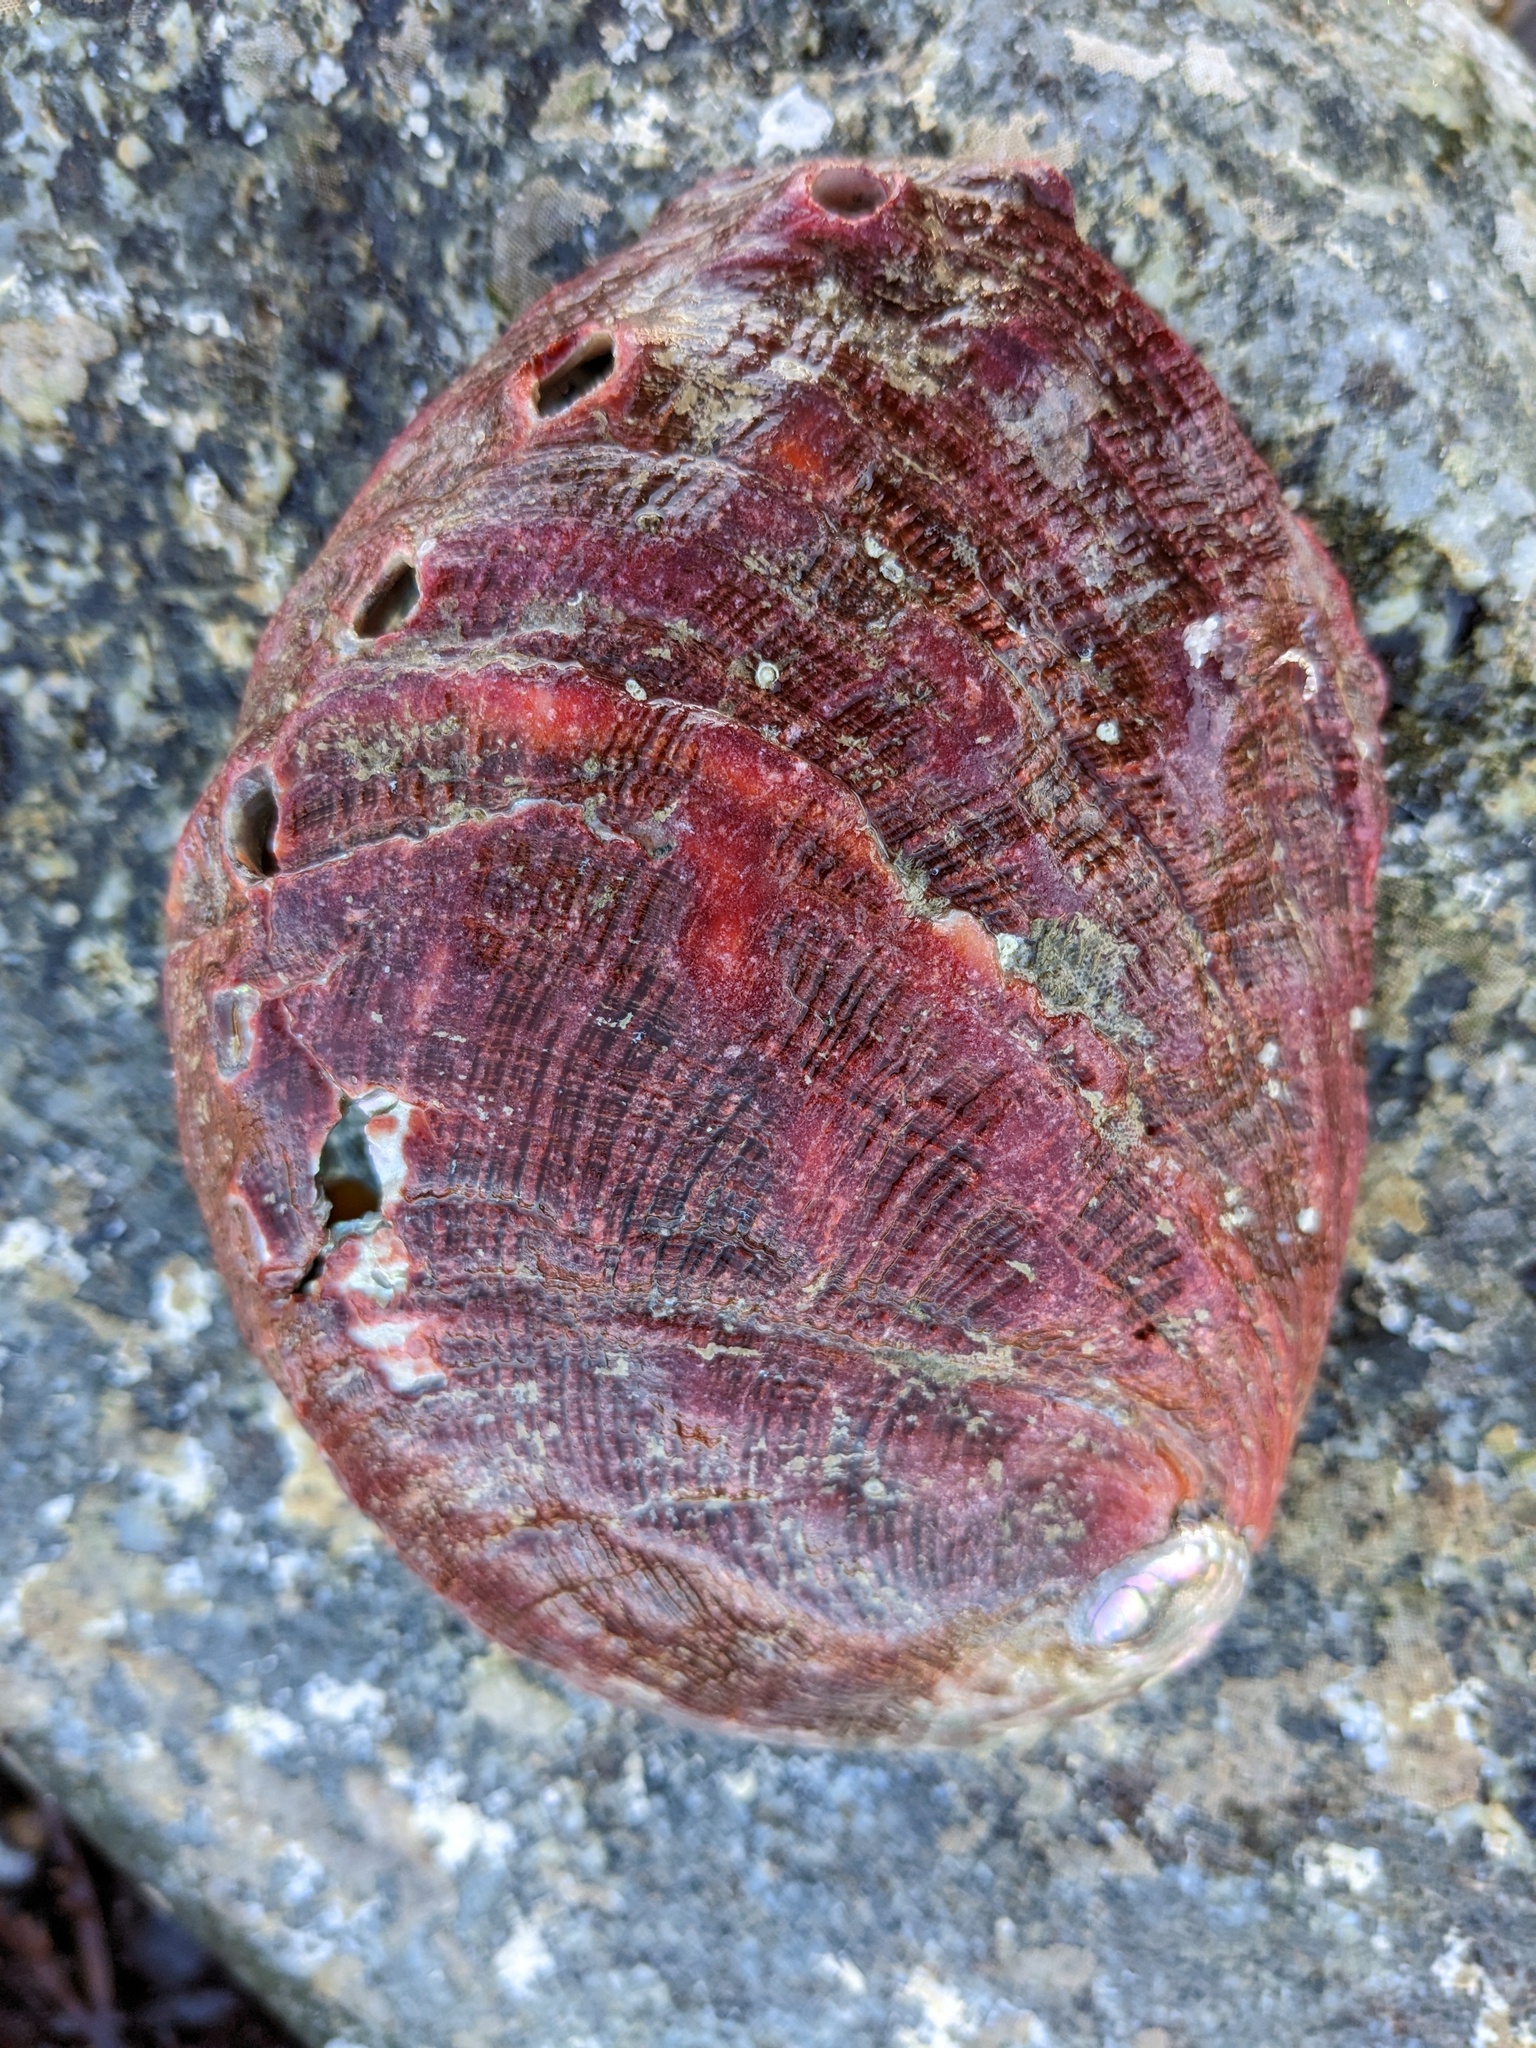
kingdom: Animalia
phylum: Mollusca
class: Gastropoda
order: Lepetellida
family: Haliotidae
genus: Haliotis
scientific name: Haliotis rufescens
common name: Red abalone
